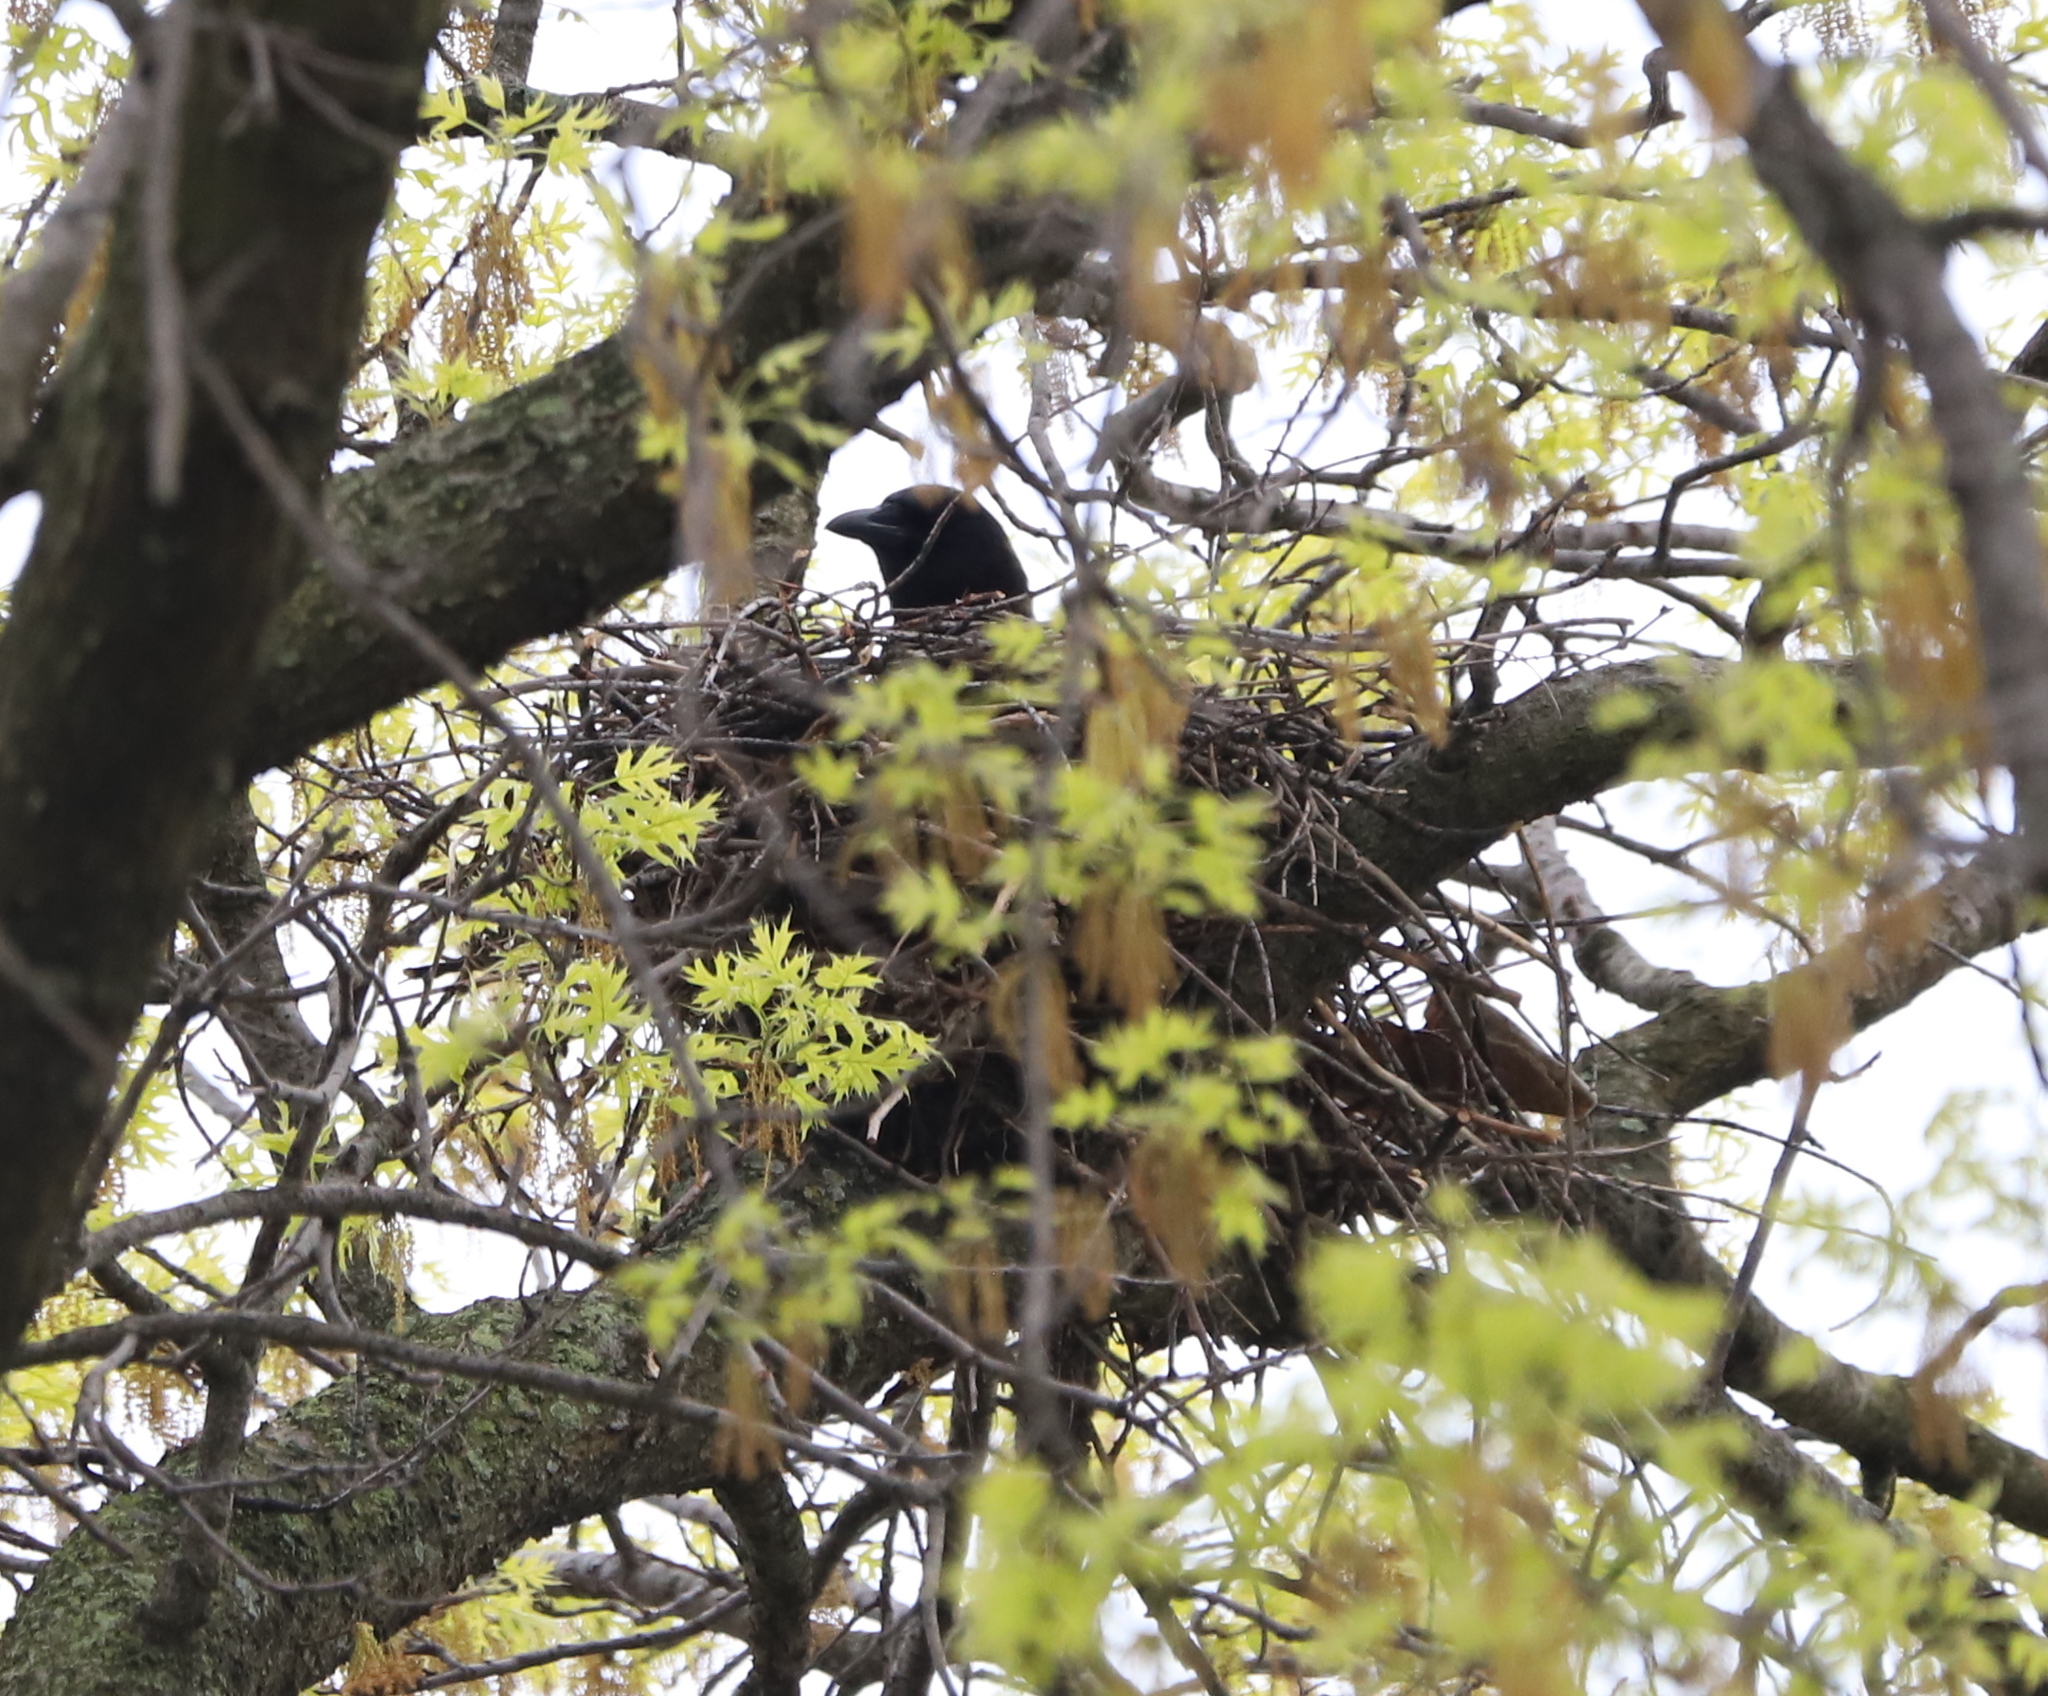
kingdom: Animalia
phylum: Chordata
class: Aves
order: Passeriformes
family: Corvidae
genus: Corvus
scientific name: Corvus brachyrhynchos
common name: American crow
